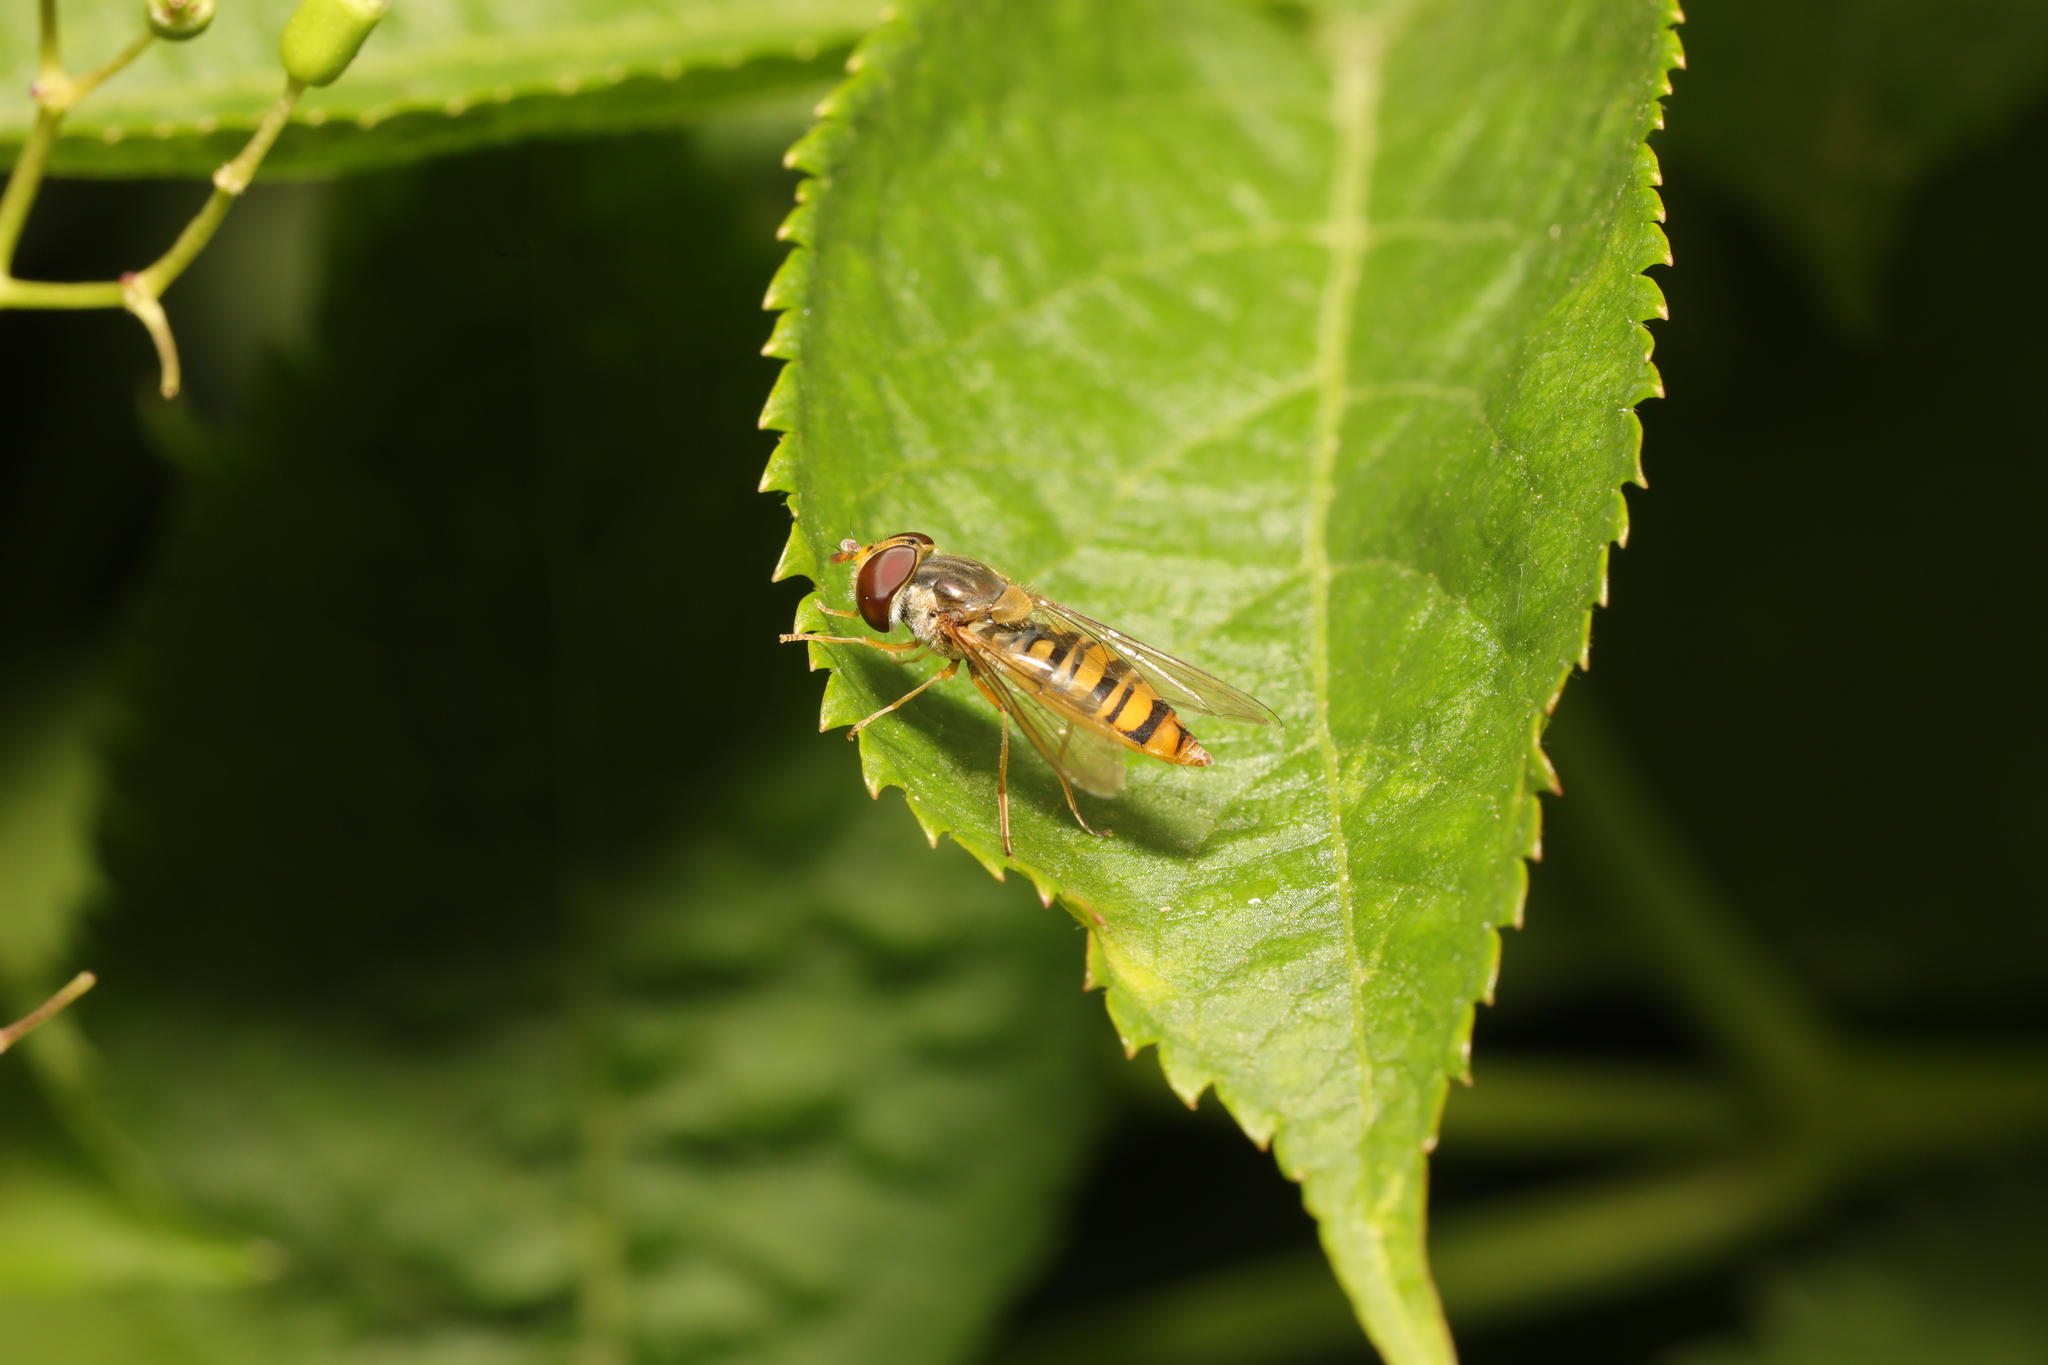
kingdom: Animalia
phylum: Arthropoda
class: Insecta
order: Diptera
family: Syrphidae
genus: Episyrphus
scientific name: Episyrphus balteatus
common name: Marmalade hoverfly
